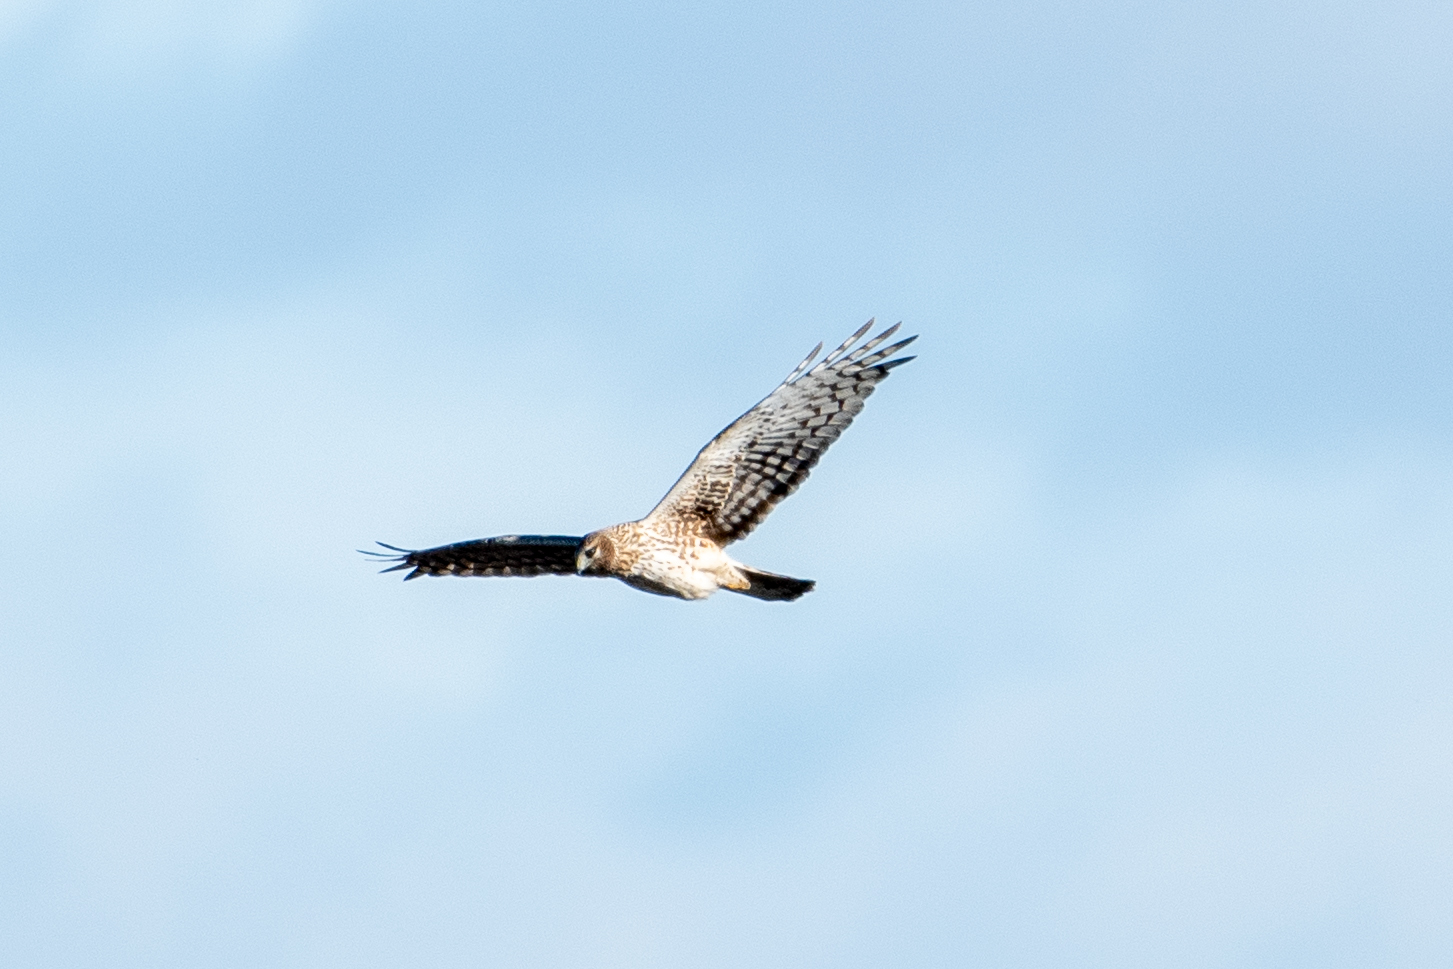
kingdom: Animalia
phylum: Chordata
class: Aves
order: Accipitriformes
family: Accipitridae
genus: Circus
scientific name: Circus cyaneus
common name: Hen harrier
